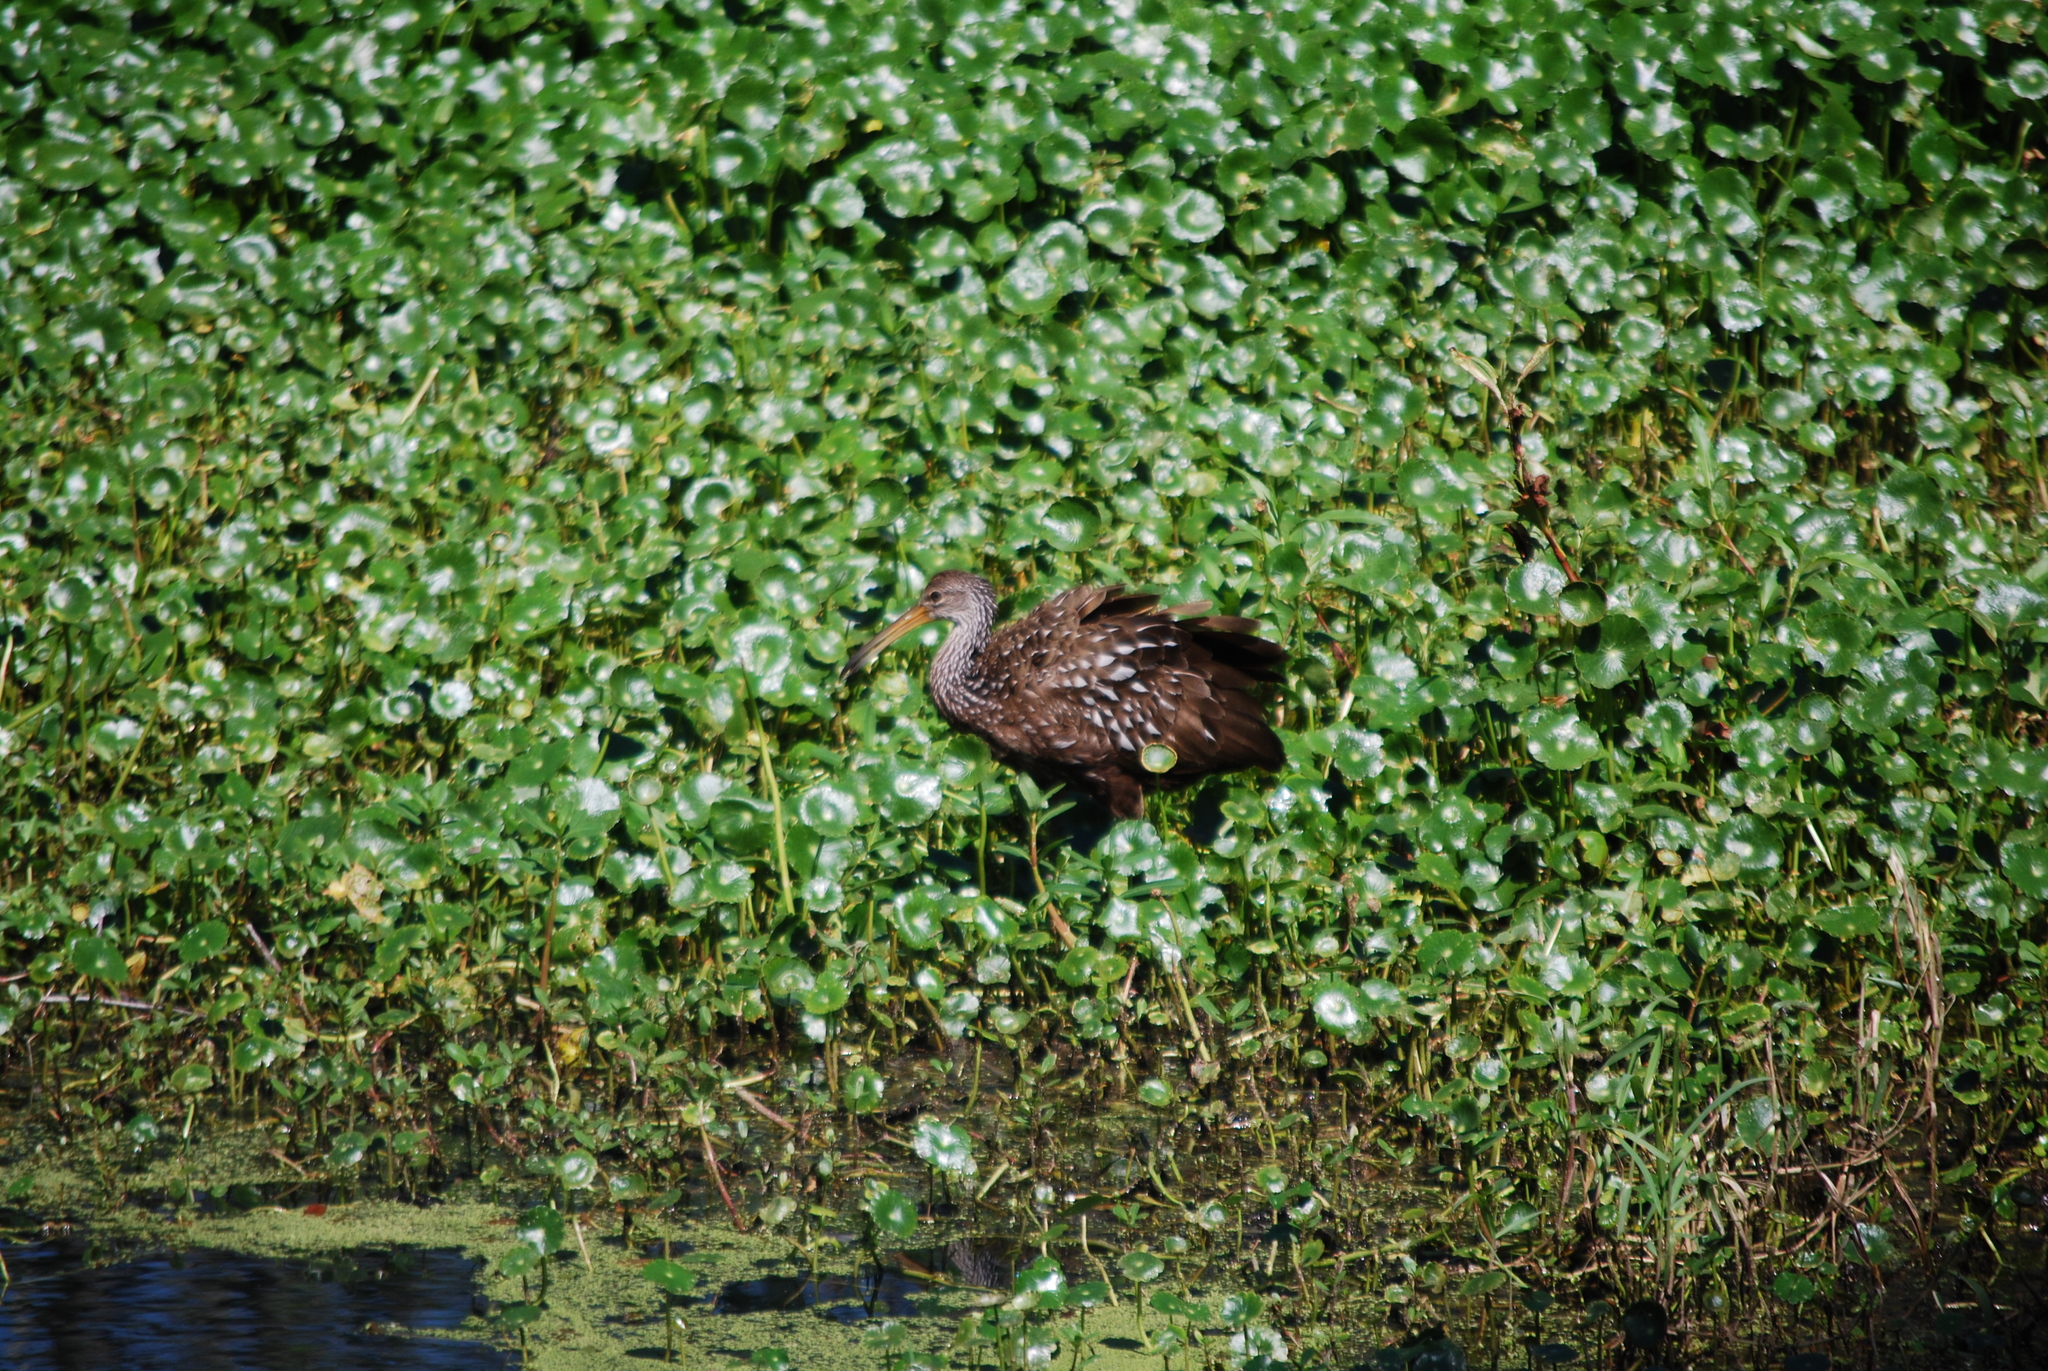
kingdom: Animalia
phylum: Chordata
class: Aves
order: Gruiformes
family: Aramidae
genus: Aramus
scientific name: Aramus guarauna
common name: Limpkin
